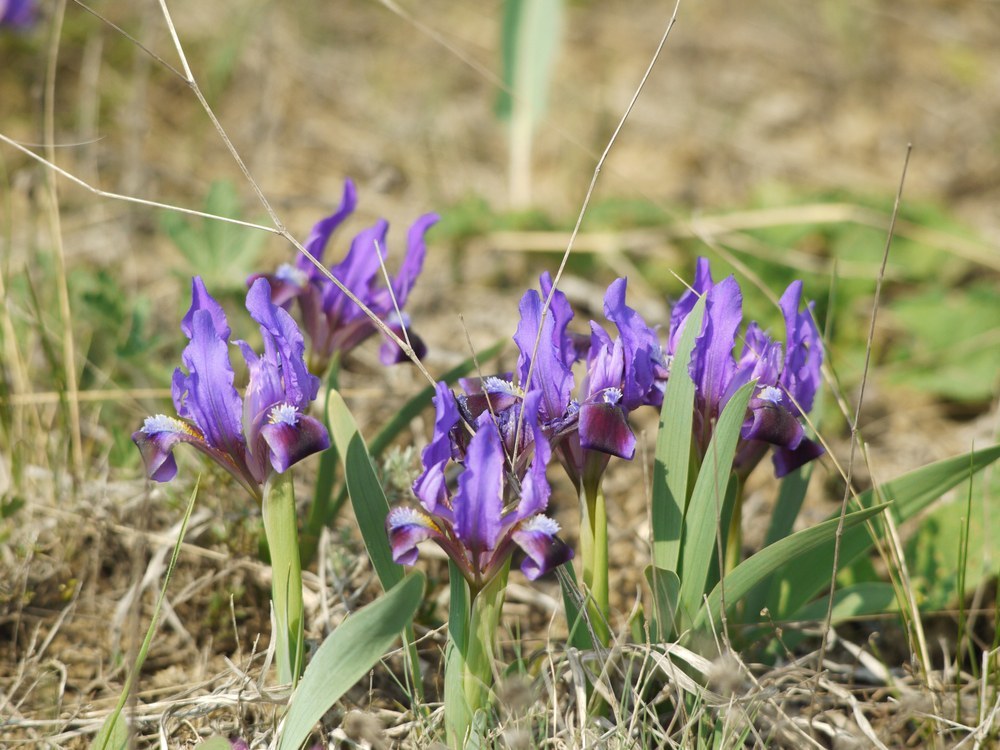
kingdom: Plantae
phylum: Tracheophyta
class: Liliopsida
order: Asparagales
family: Iridaceae
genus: Iris
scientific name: Iris pumila
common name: Dwarf iris
